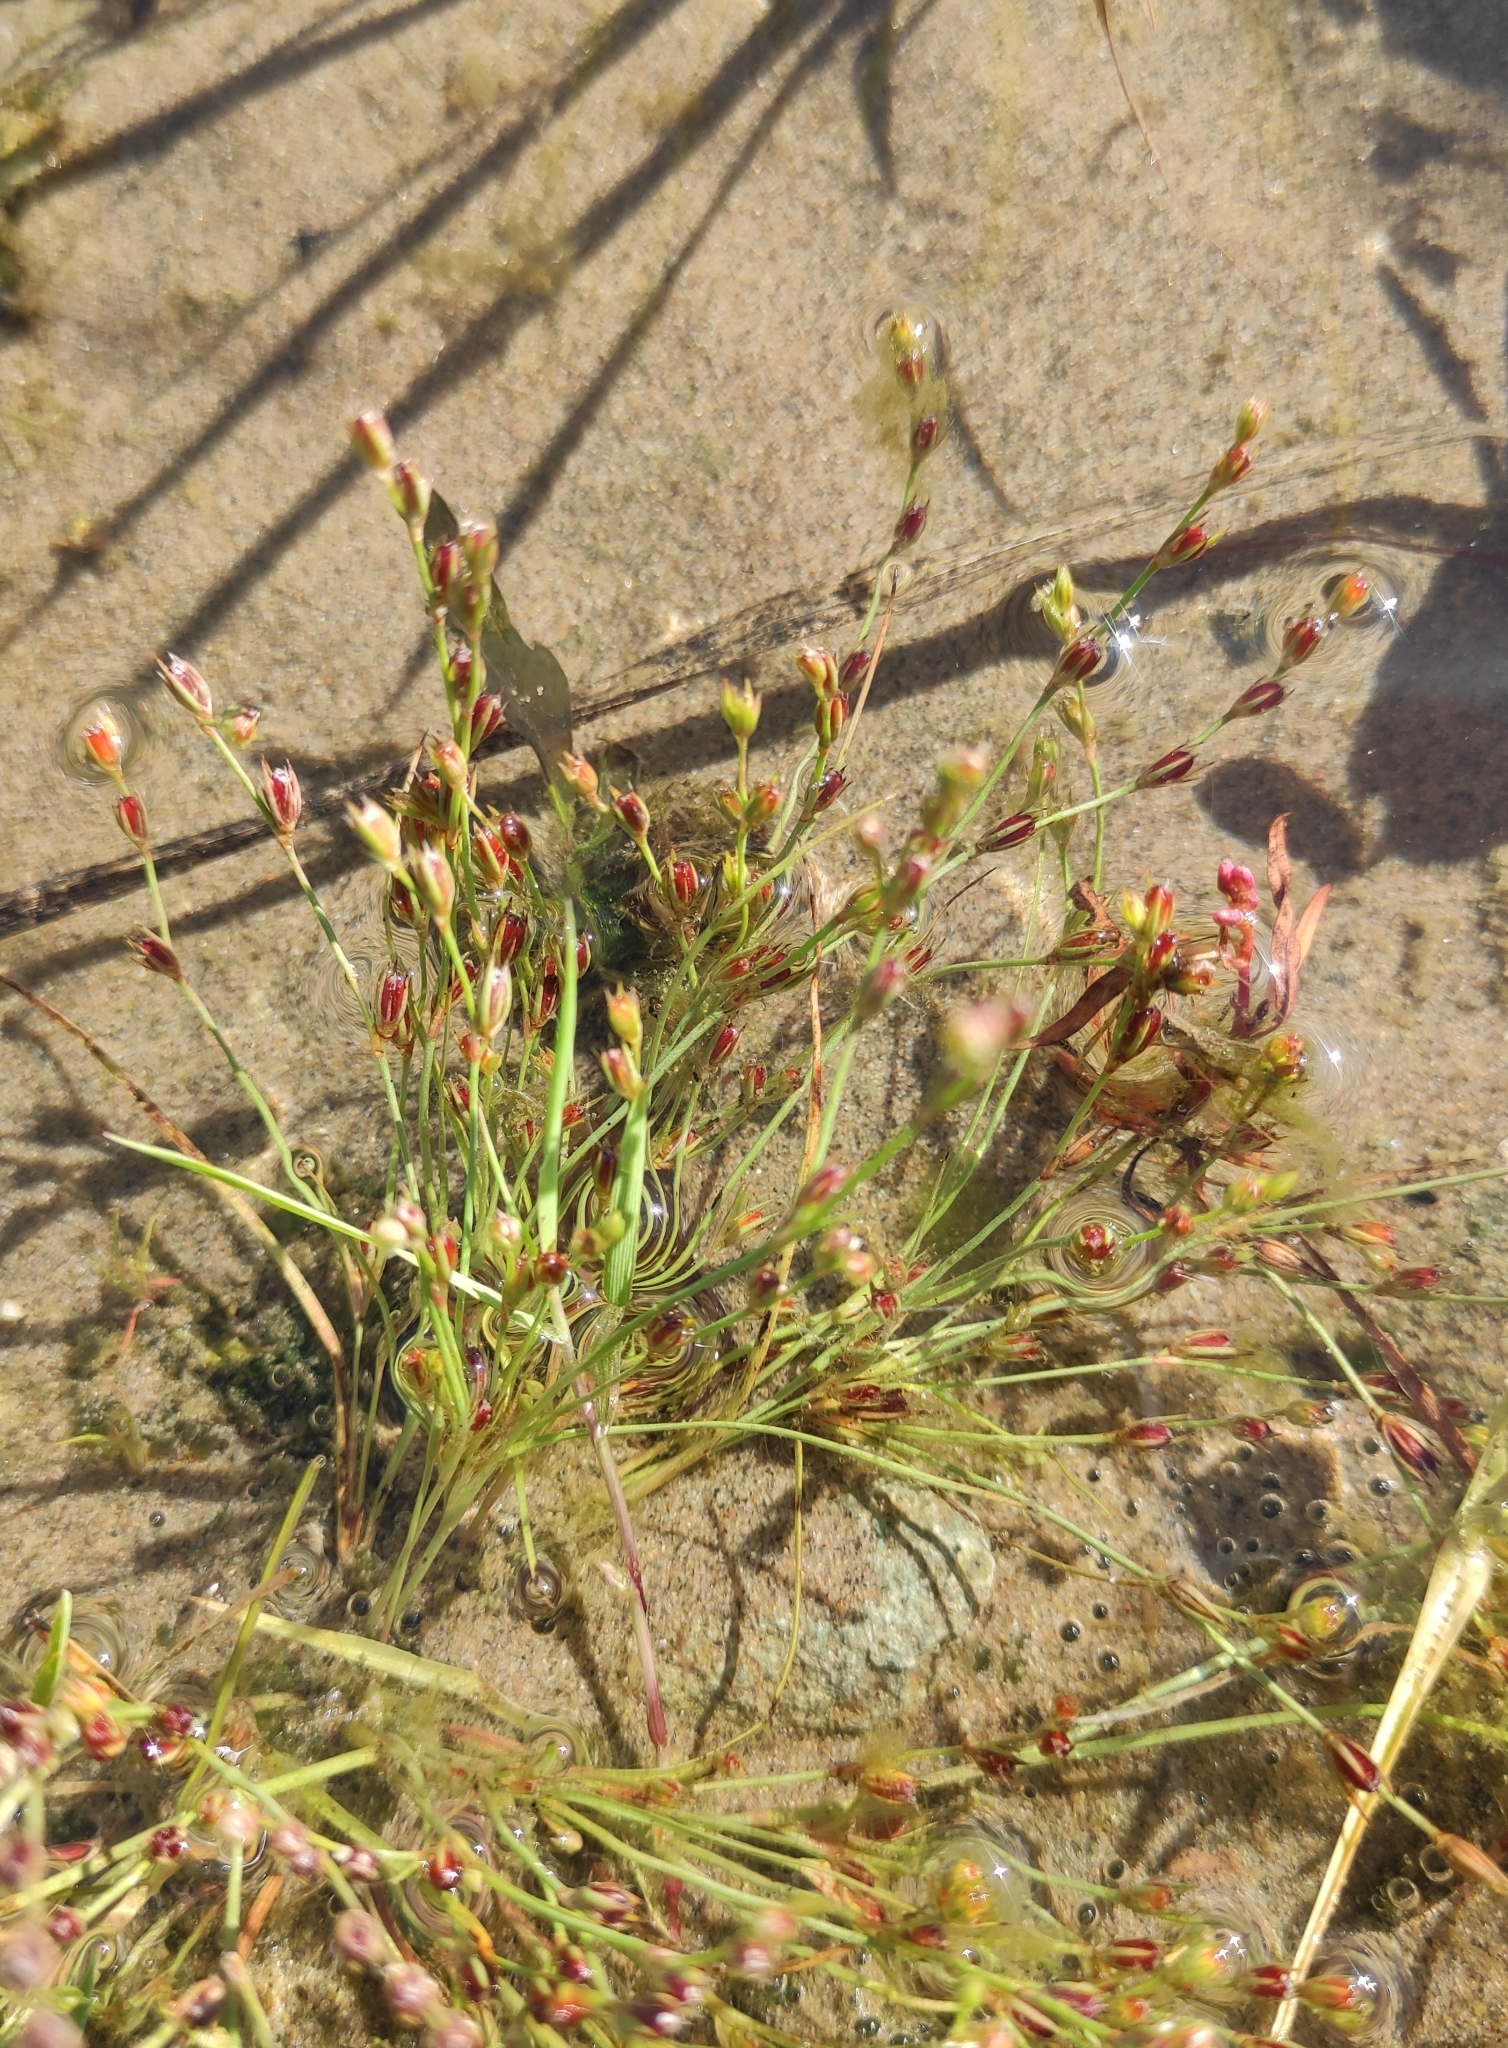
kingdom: Plantae
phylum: Tracheophyta
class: Liliopsida
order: Poales
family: Juncaceae
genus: Juncus
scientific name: Juncus bufonius
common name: Toad rush
